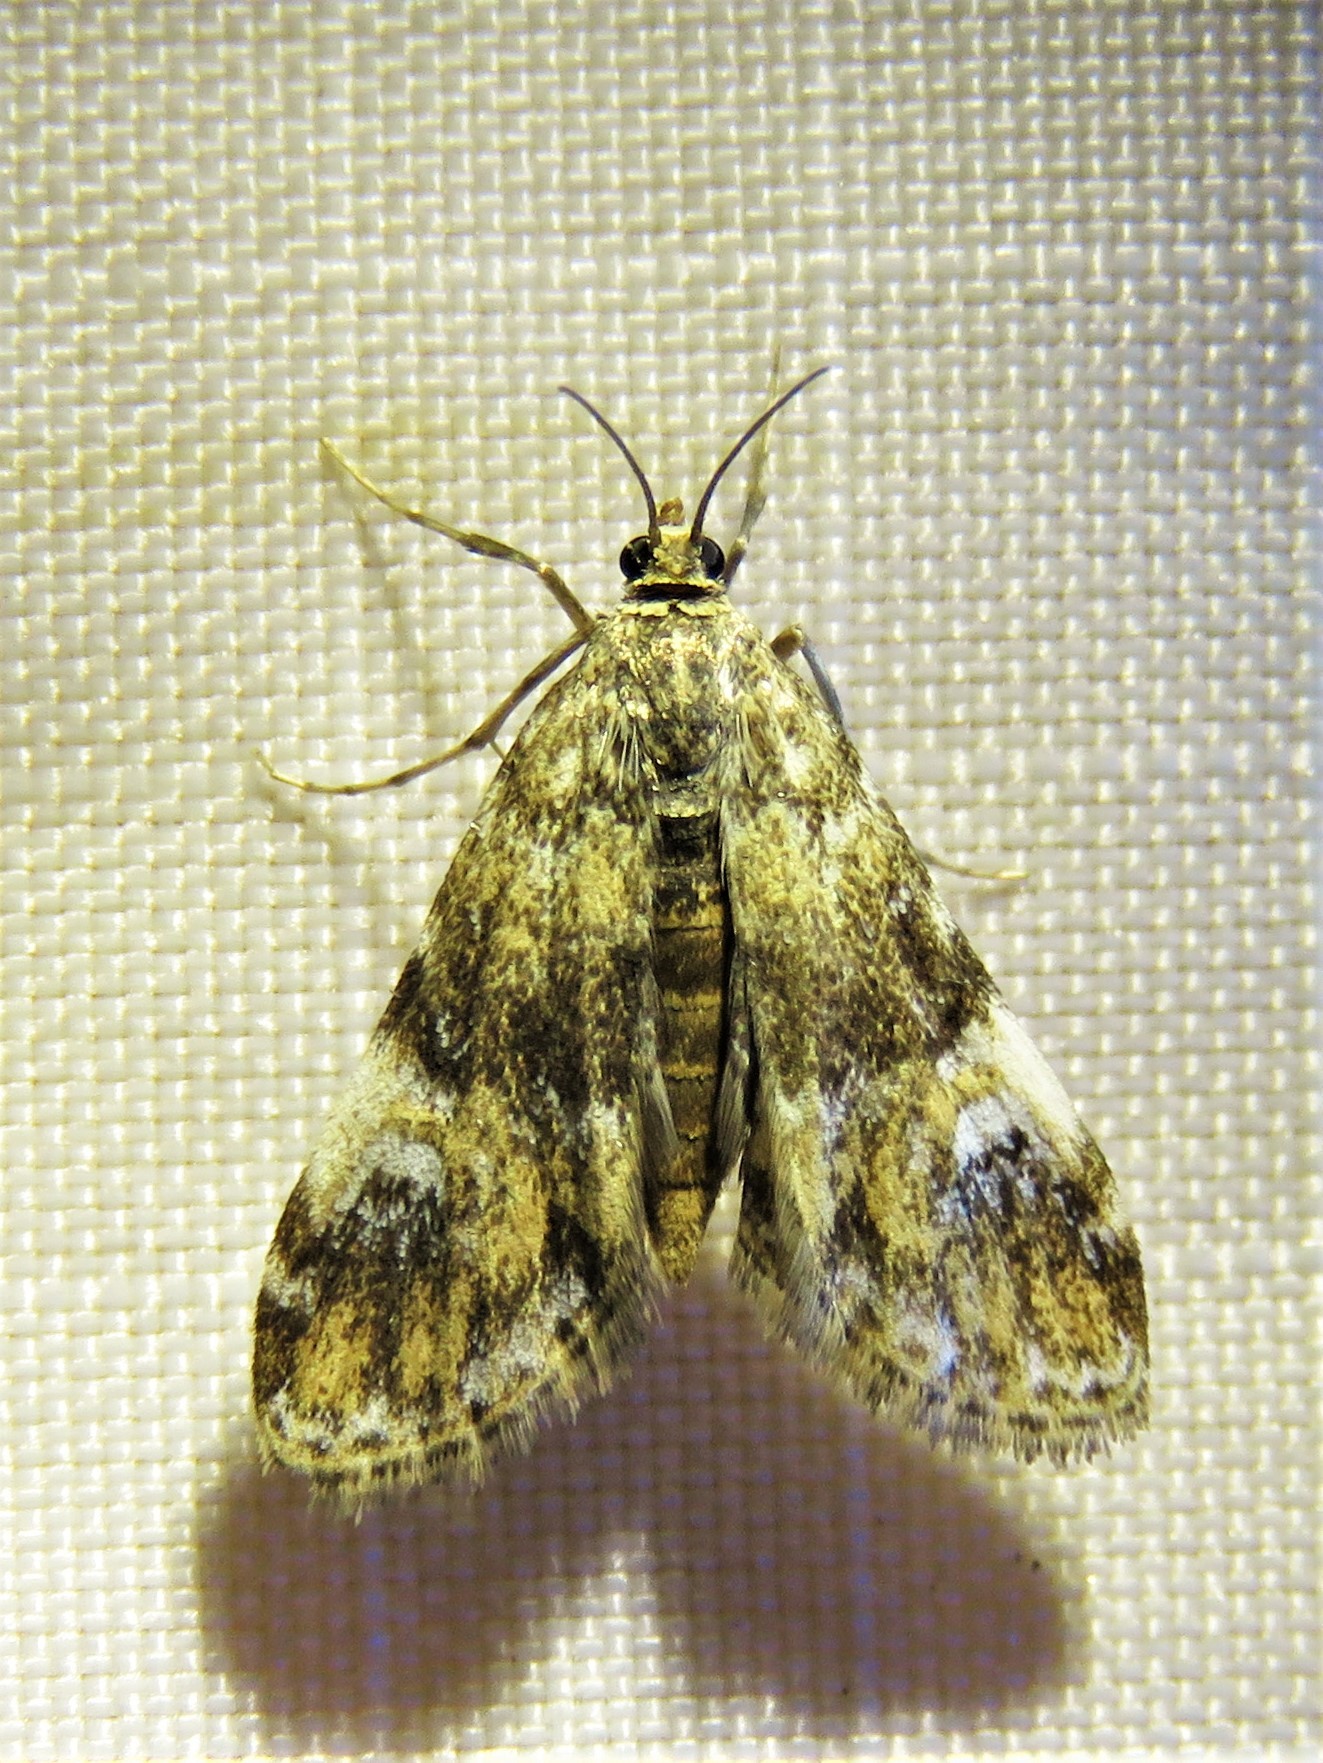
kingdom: Animalia
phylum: Arthropoda
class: Insecta
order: Lepidoptera
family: Crambidae
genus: Elophila
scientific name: Elophila obliteralis
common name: Waterlily leafcutter moth
